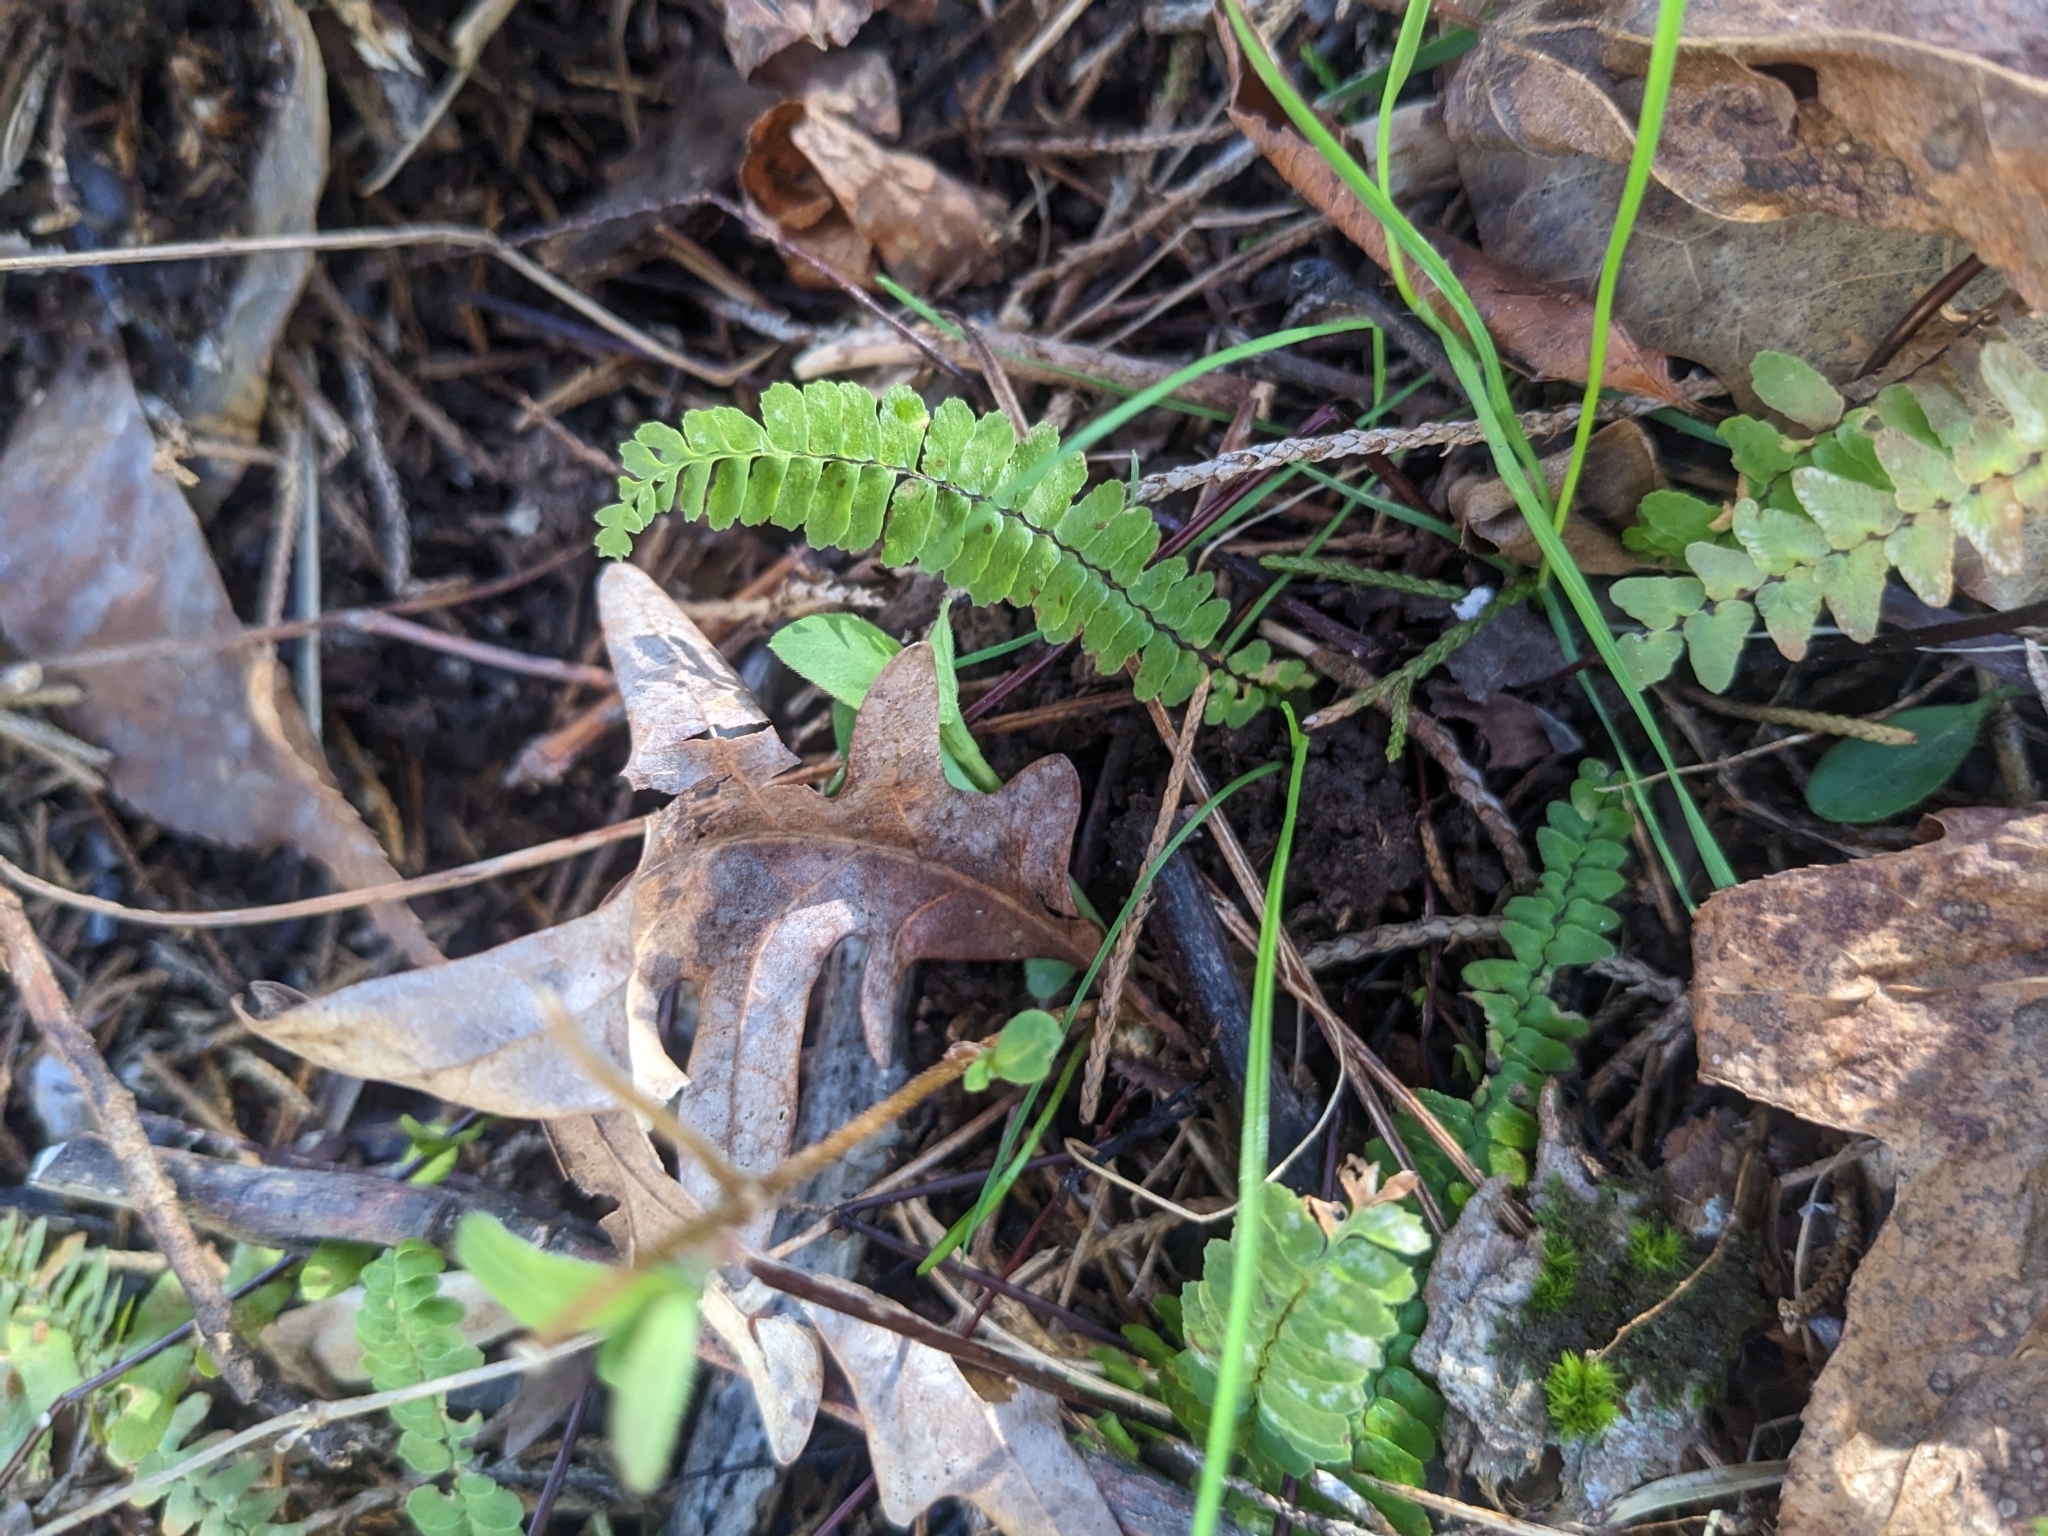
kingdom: Plantae
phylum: Tracheophyta
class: Polypodiopsida
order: Polypodiales
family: Aspleniaceae
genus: Asplenium
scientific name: Asplenium platyneuron
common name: Ebony spleenwort
